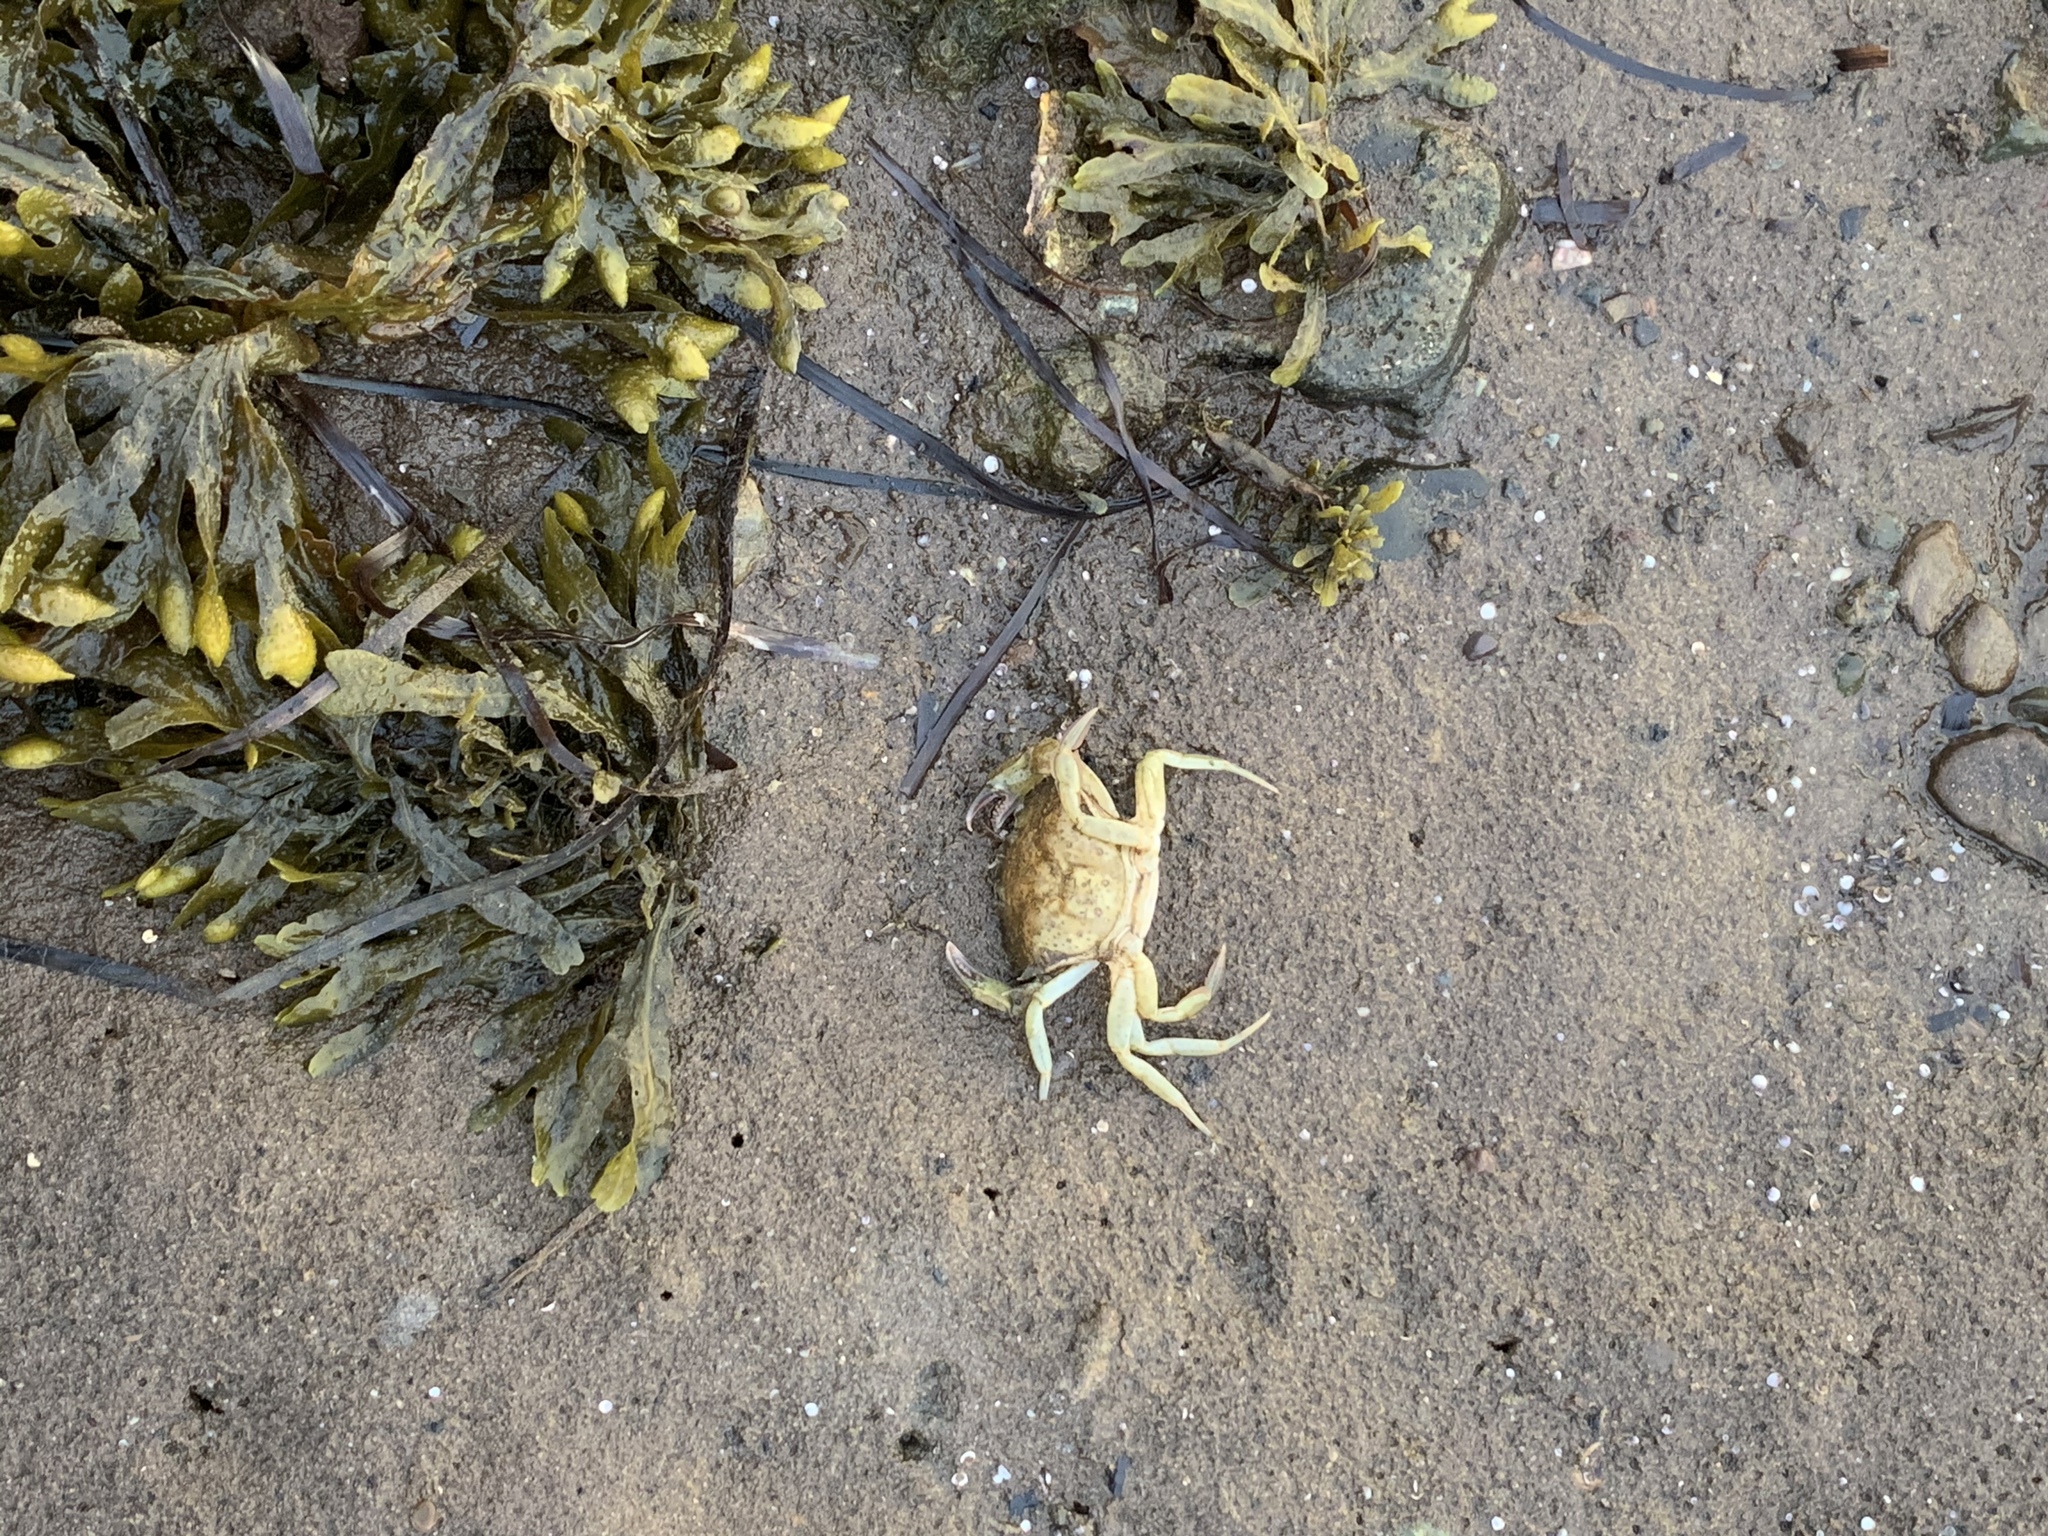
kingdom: Animalia
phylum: Arthropoda
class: Malacostraca
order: Decapoda
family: Carcinidae
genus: Carcinus
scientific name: Carcinus maenas
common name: European green crab
